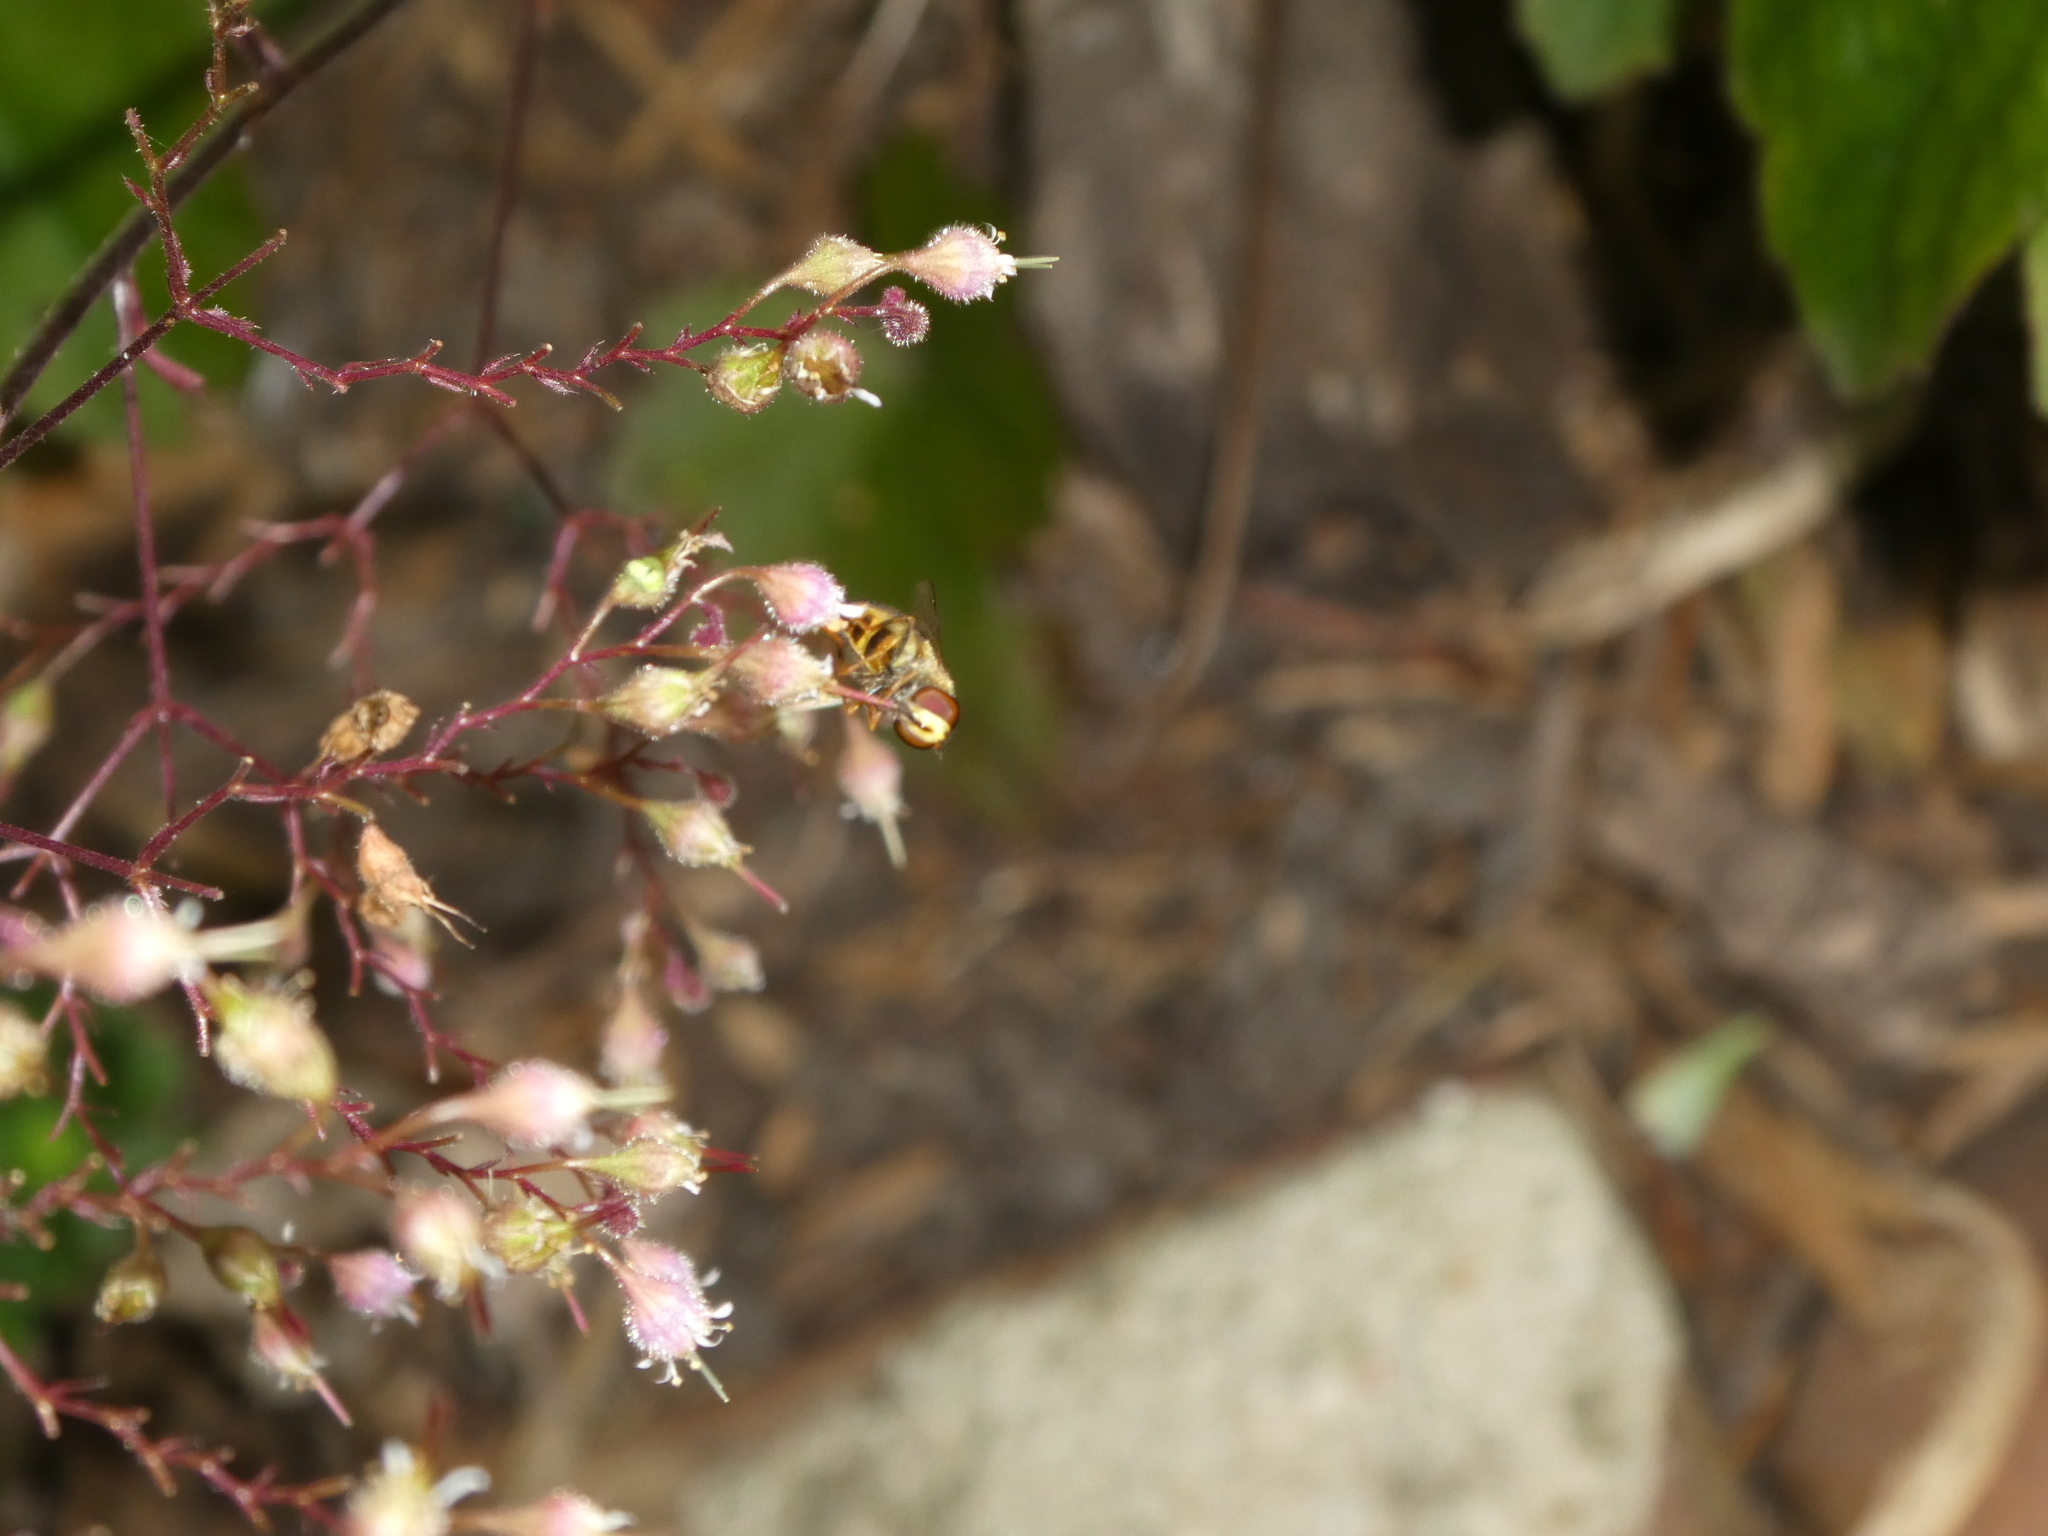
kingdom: Animalia
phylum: Arthropoda
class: Insecta
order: Diptera
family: Syrphidae
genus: Eupeodes
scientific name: Eupeodes
